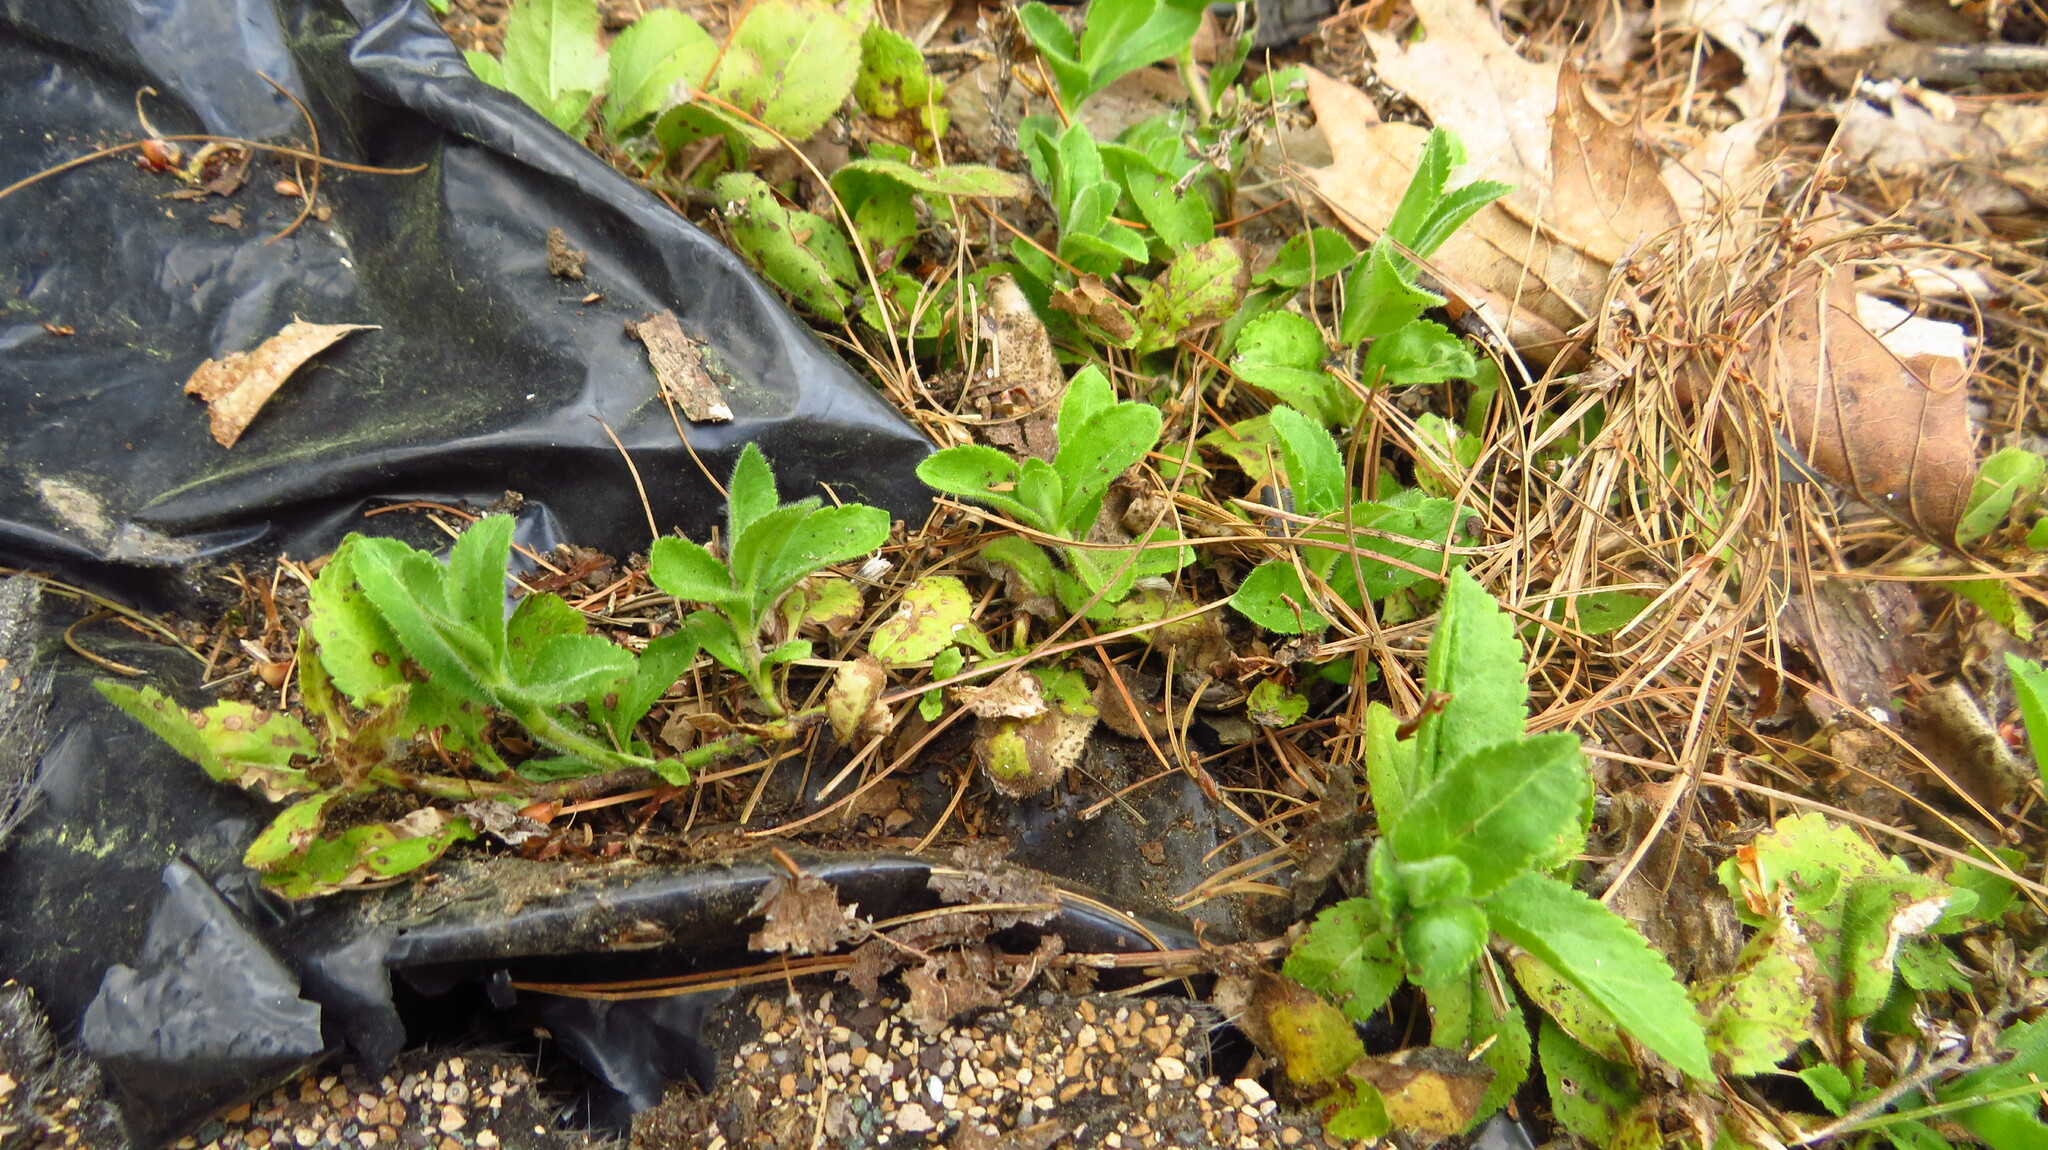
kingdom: Plantae
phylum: Tracheophyta
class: Magnoliopsida
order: Lamiales
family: Plantaginaceae
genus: Veronica
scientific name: Veronica officinalis
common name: Common speedwell
